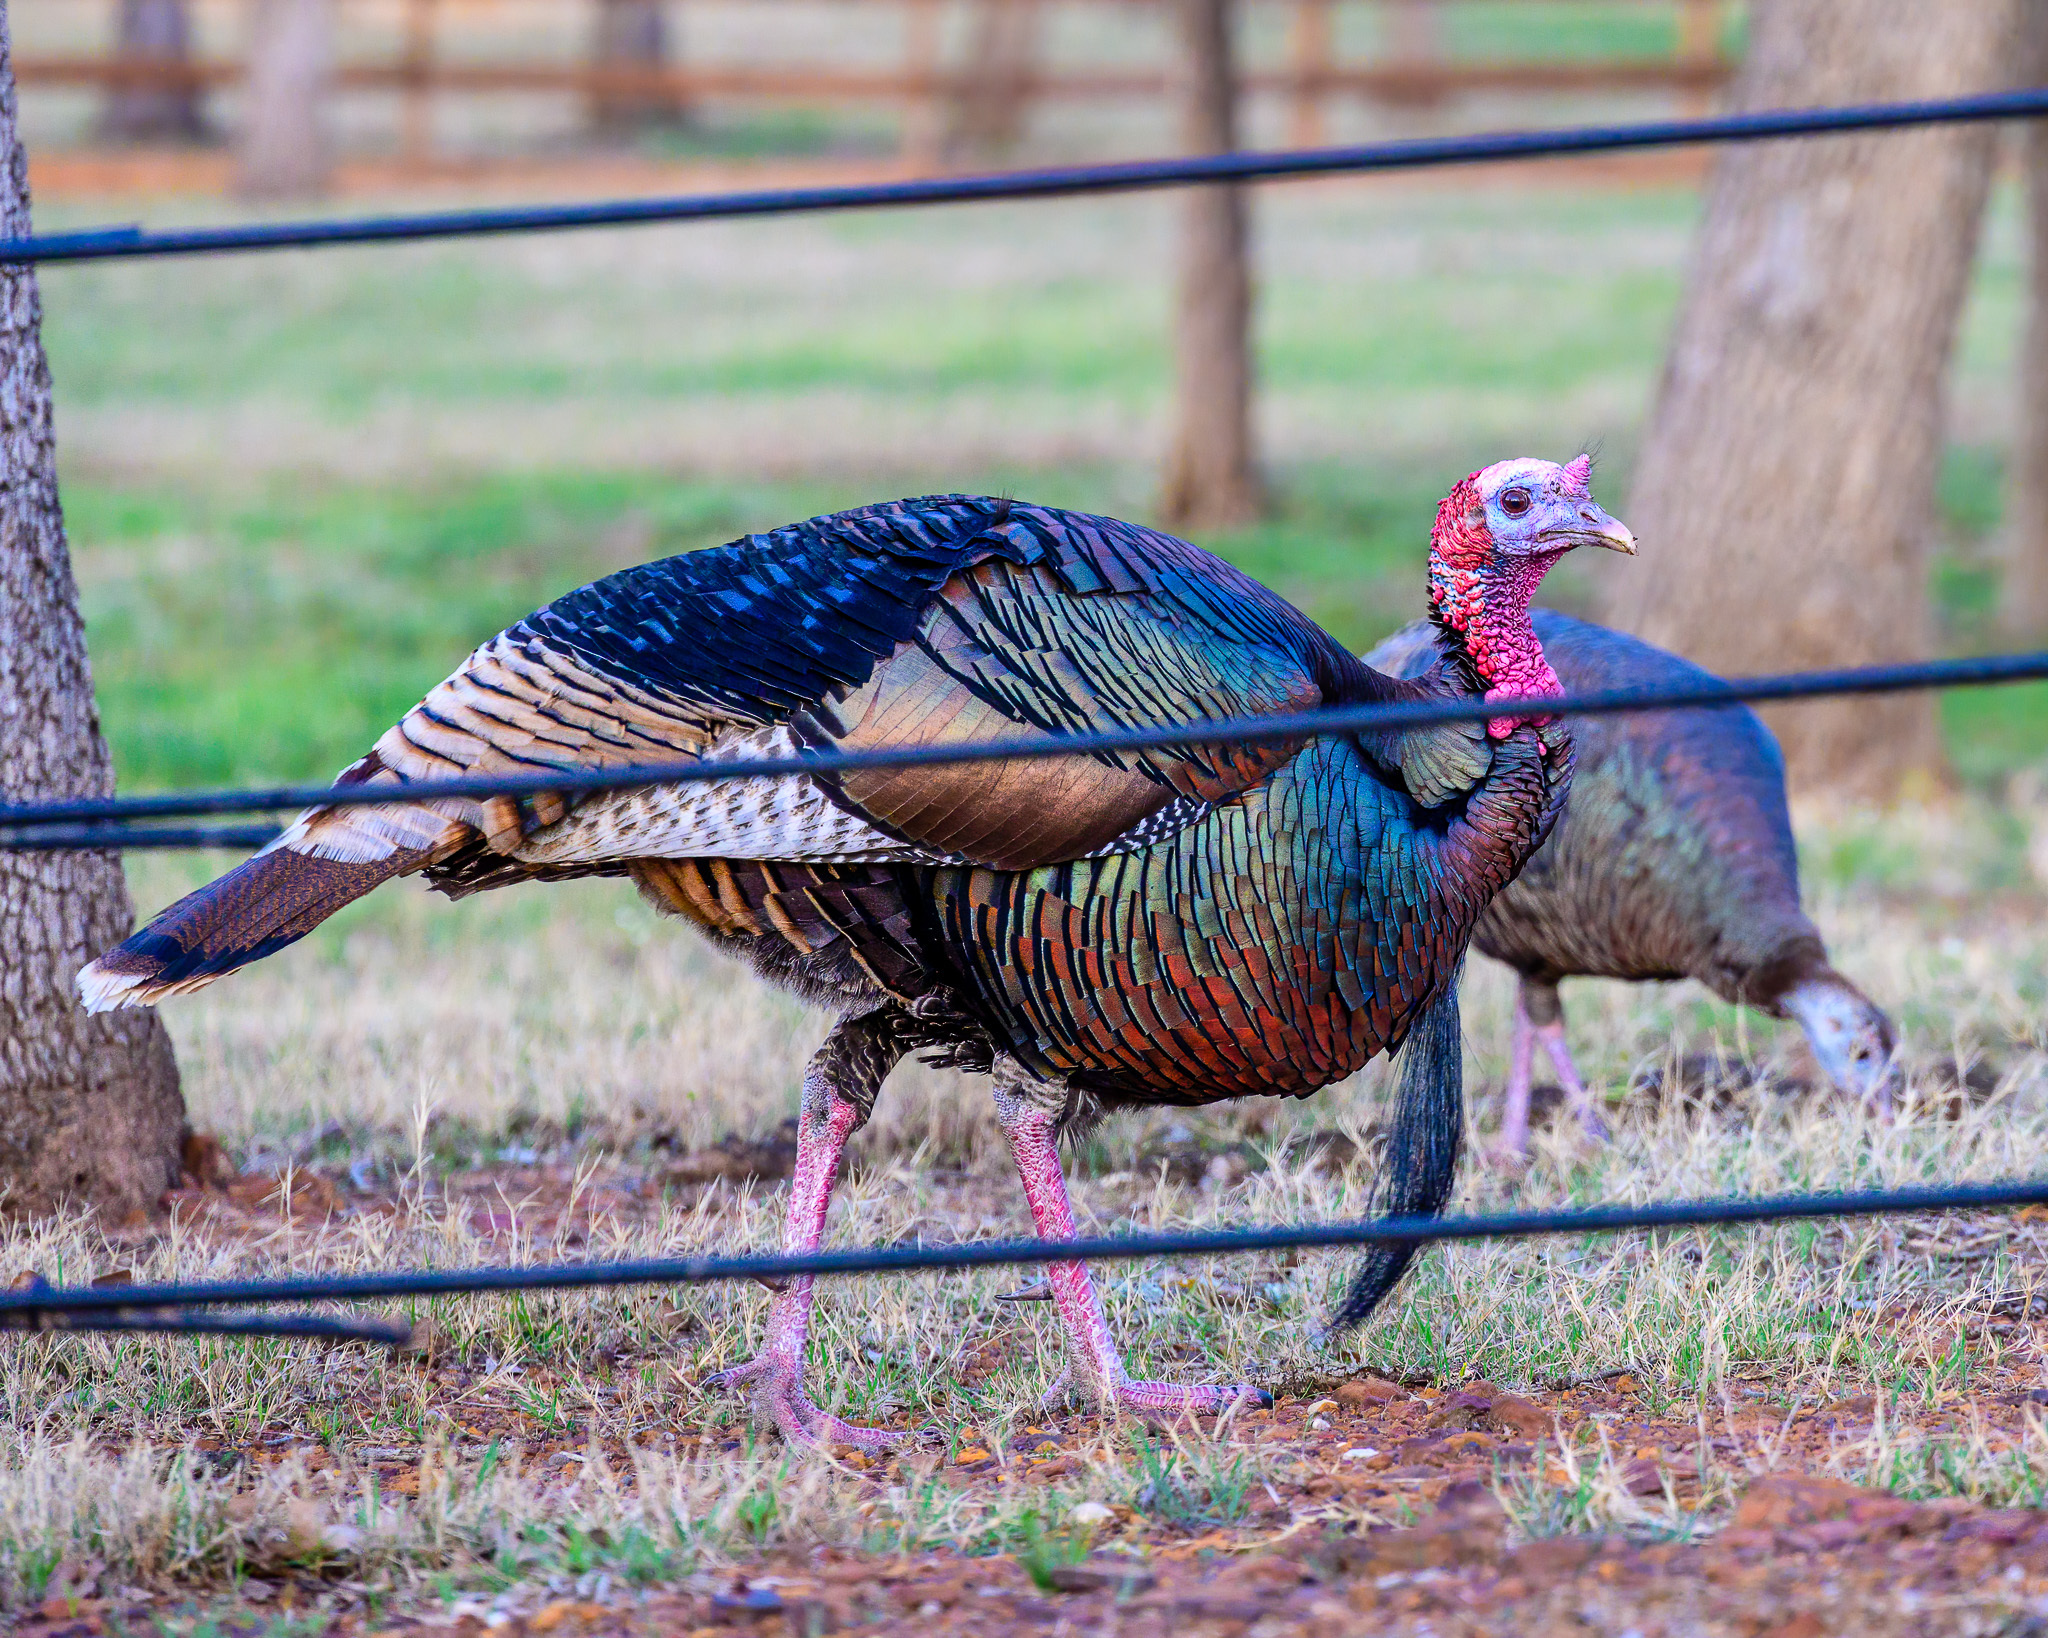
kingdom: Animalia
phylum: Chordata
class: Aves
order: Galliformes
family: Phasianidae
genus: Meleagris
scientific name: Meleagris gallopavo
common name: Wild turkey
